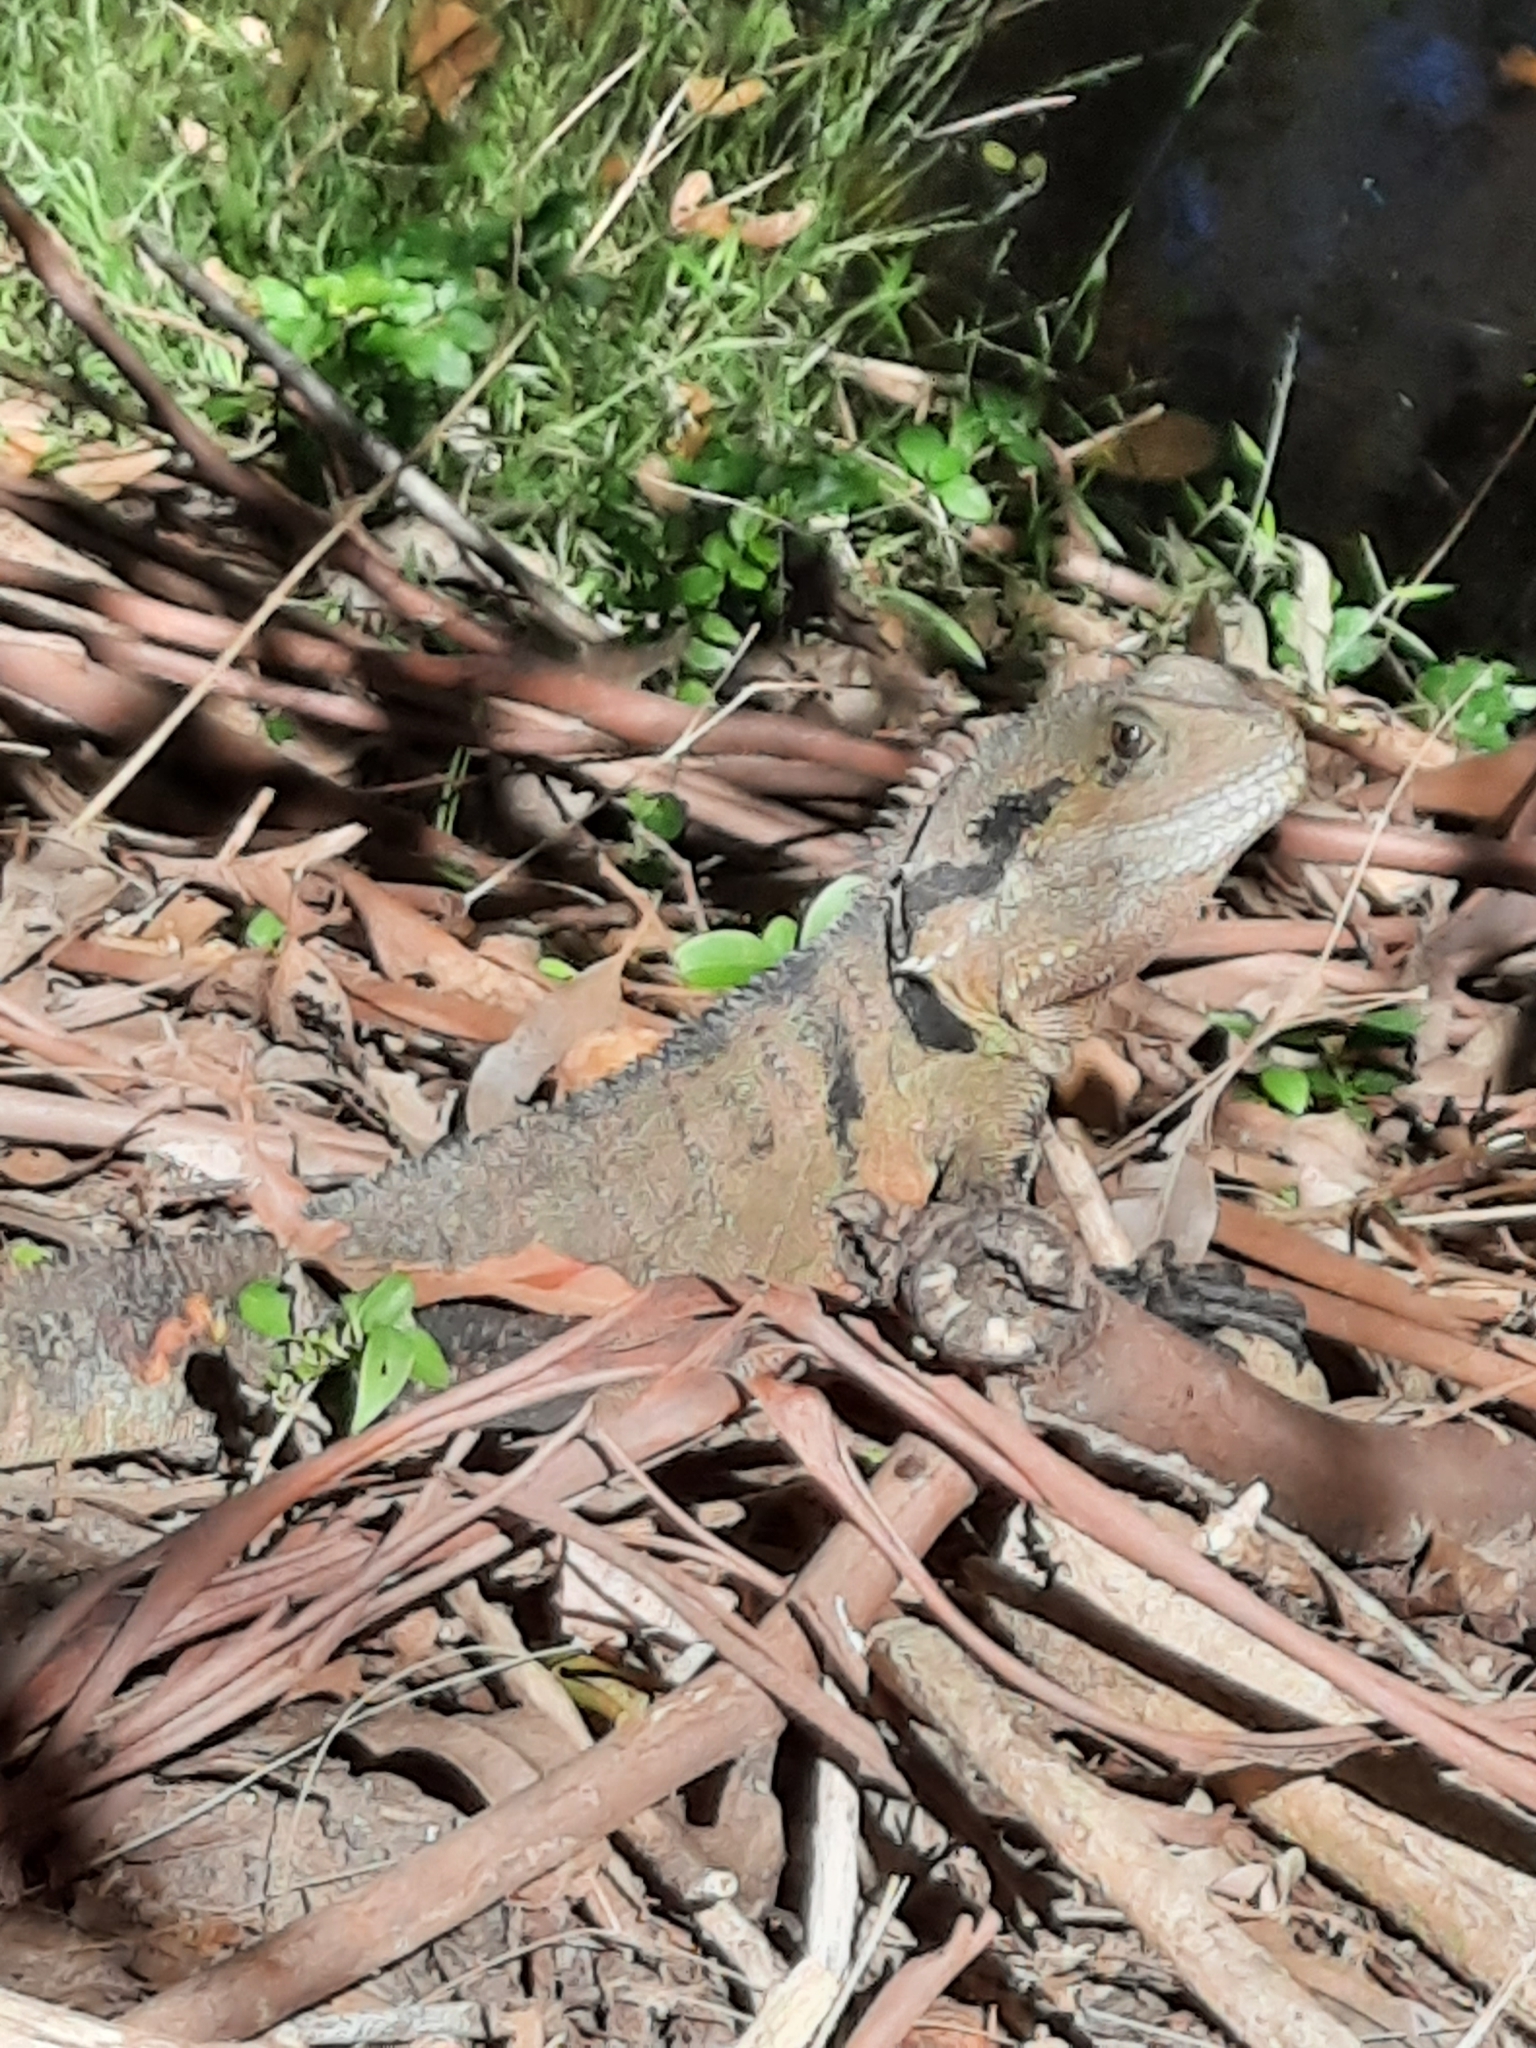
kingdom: Animalia
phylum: Chordata
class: Squamata
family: Agamidae
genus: Intellagama
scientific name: Intellagama lesueurii
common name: Eastern water dragon
